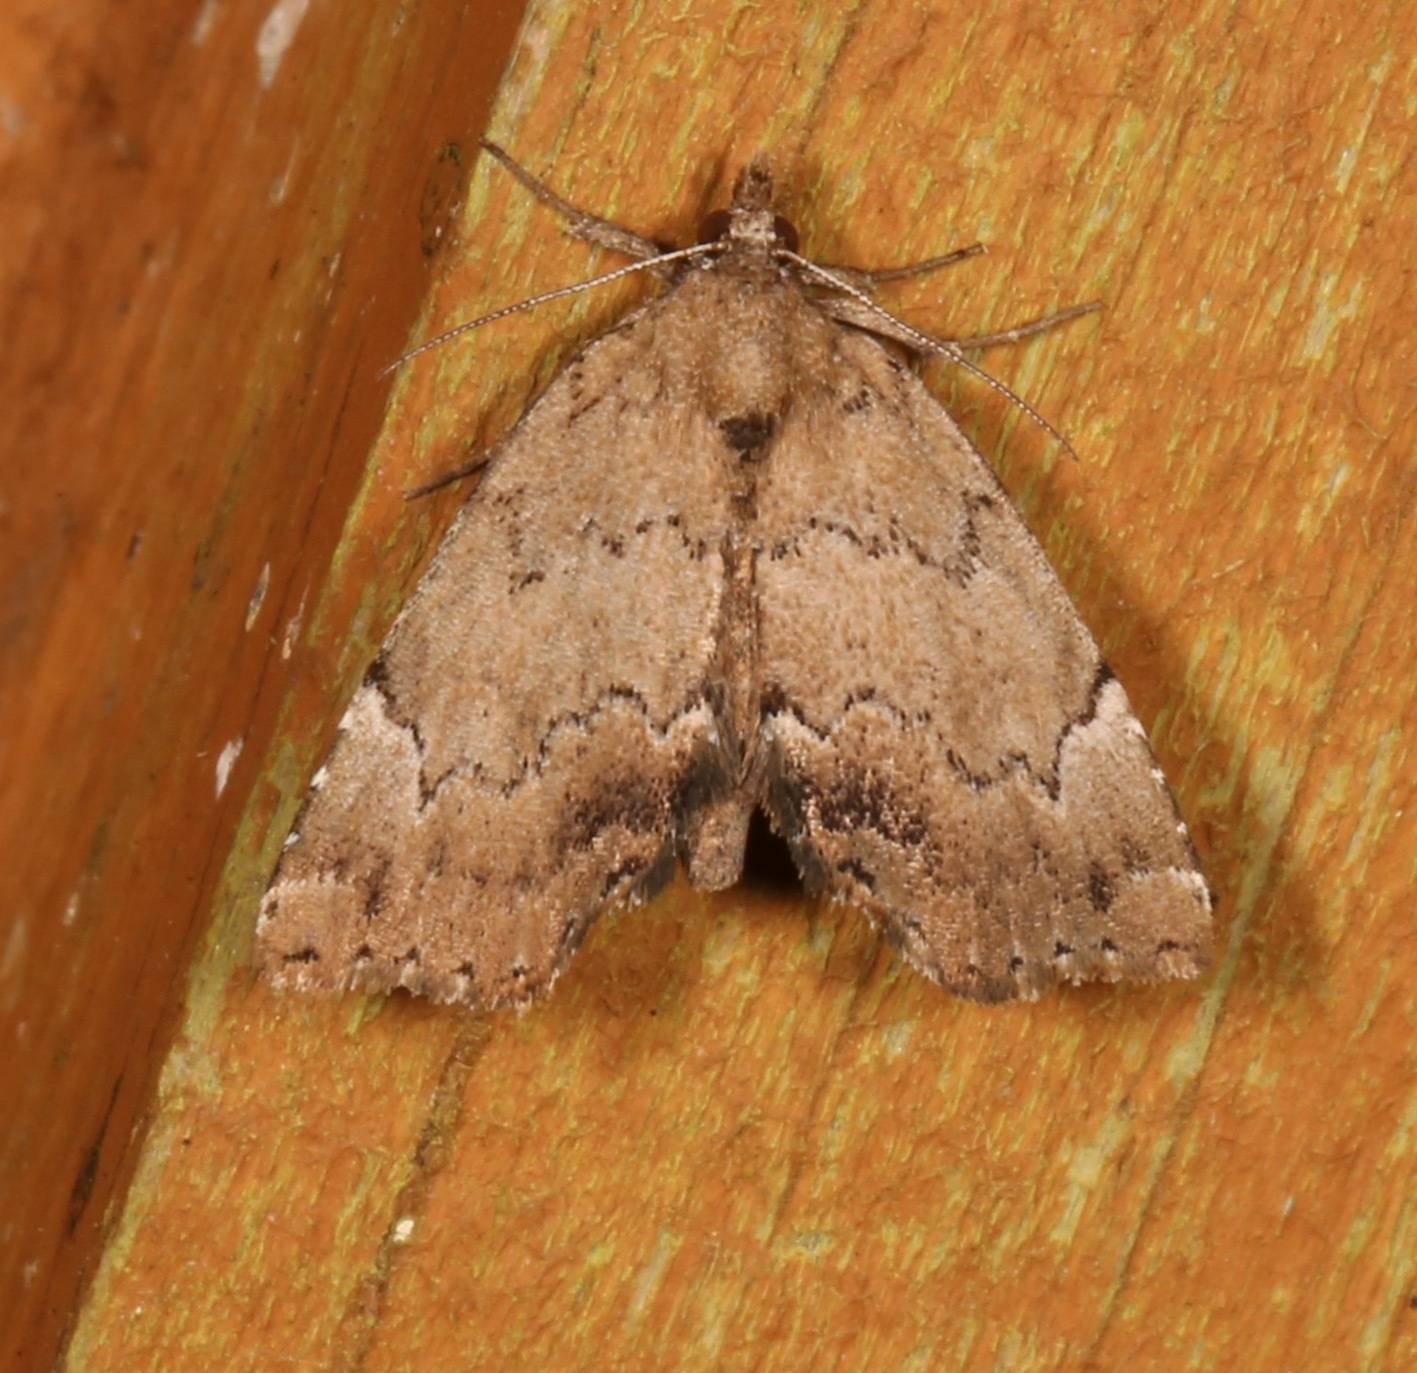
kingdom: Animalia
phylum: Arthropoda
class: Insecta
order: Lepidoptera
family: Erebidae
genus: Cutina
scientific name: Cutina aluticolor
